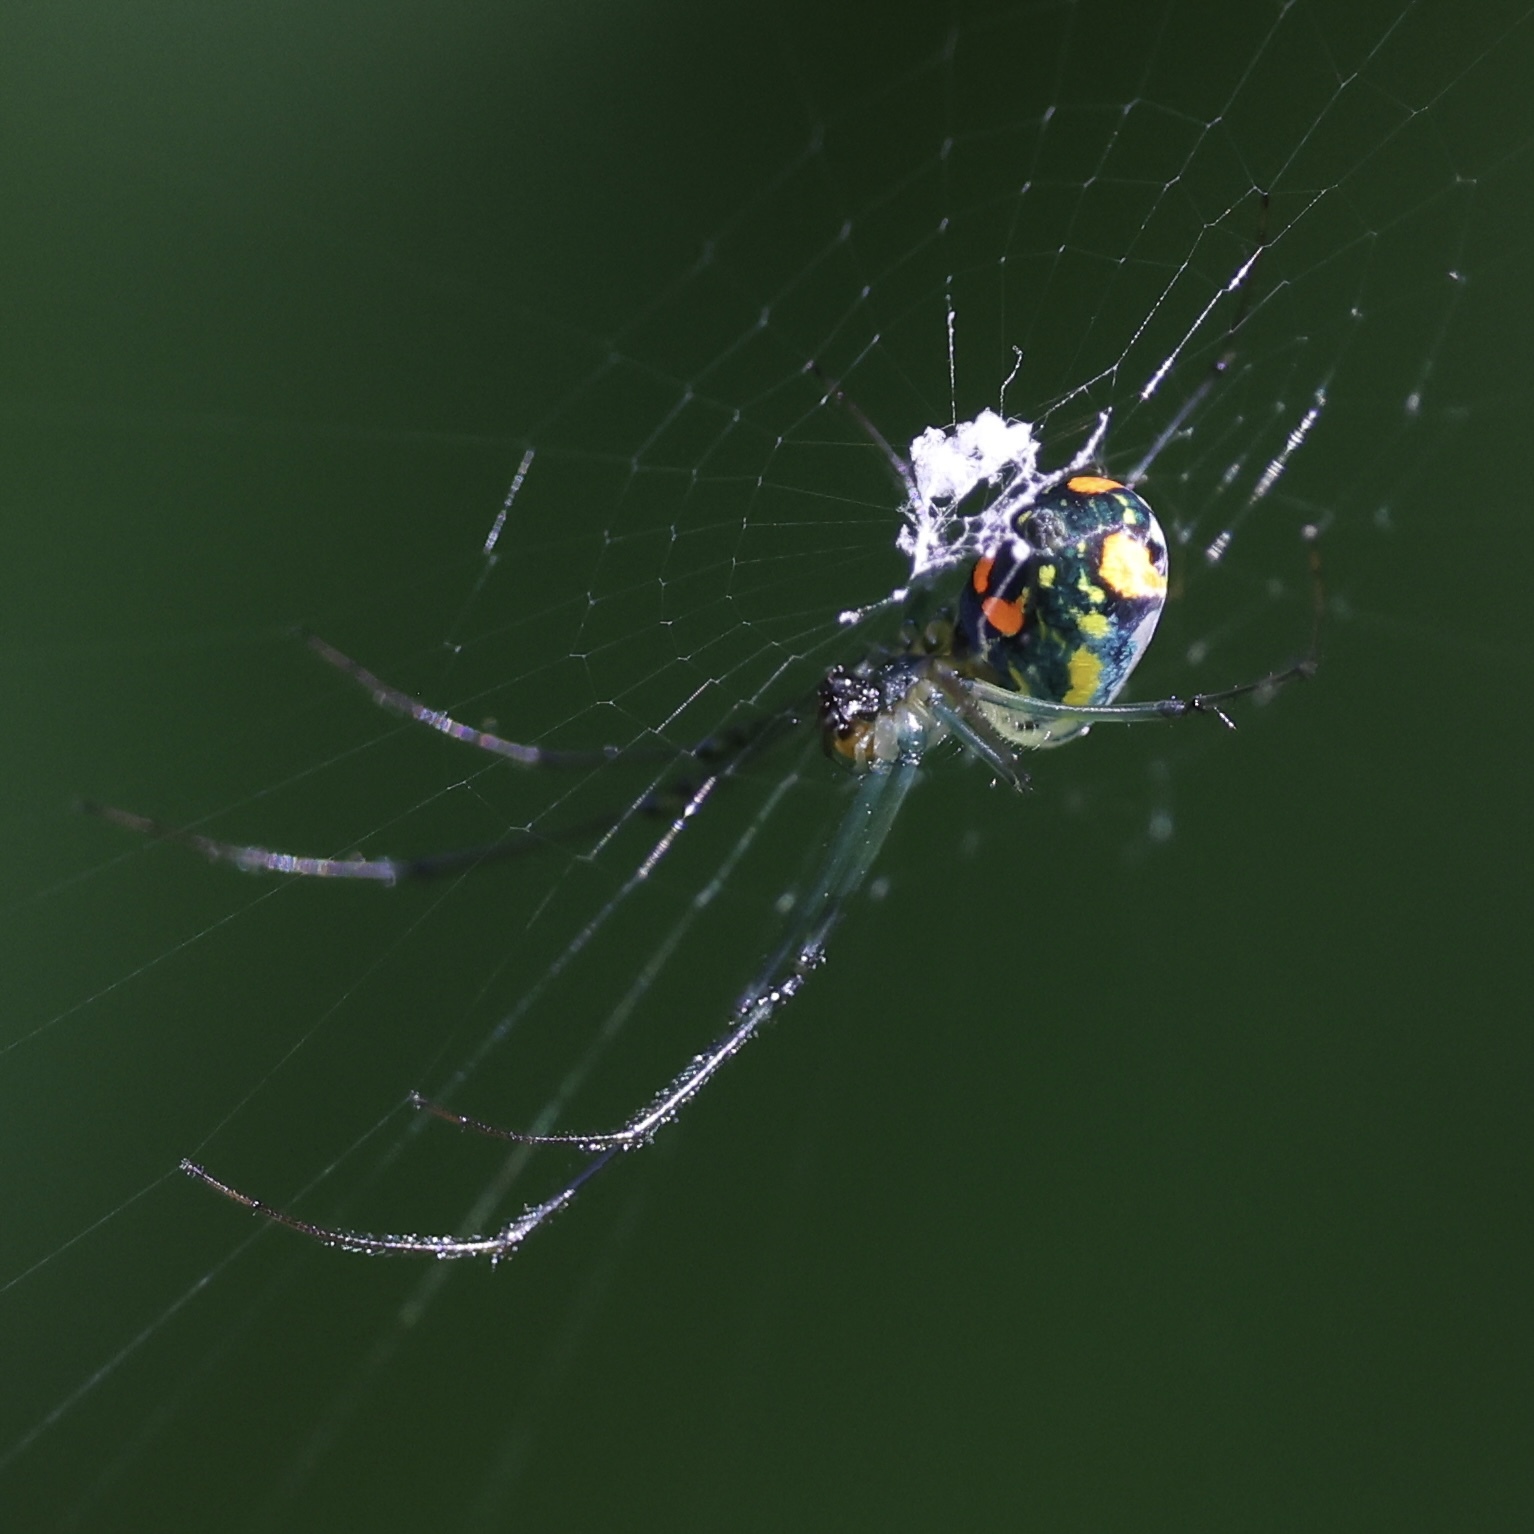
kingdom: Animalia
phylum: Arthropoda
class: Arachnida
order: Araneae
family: Tetragnathidae
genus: Leucauge
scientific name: Leucauge argyrobapta
